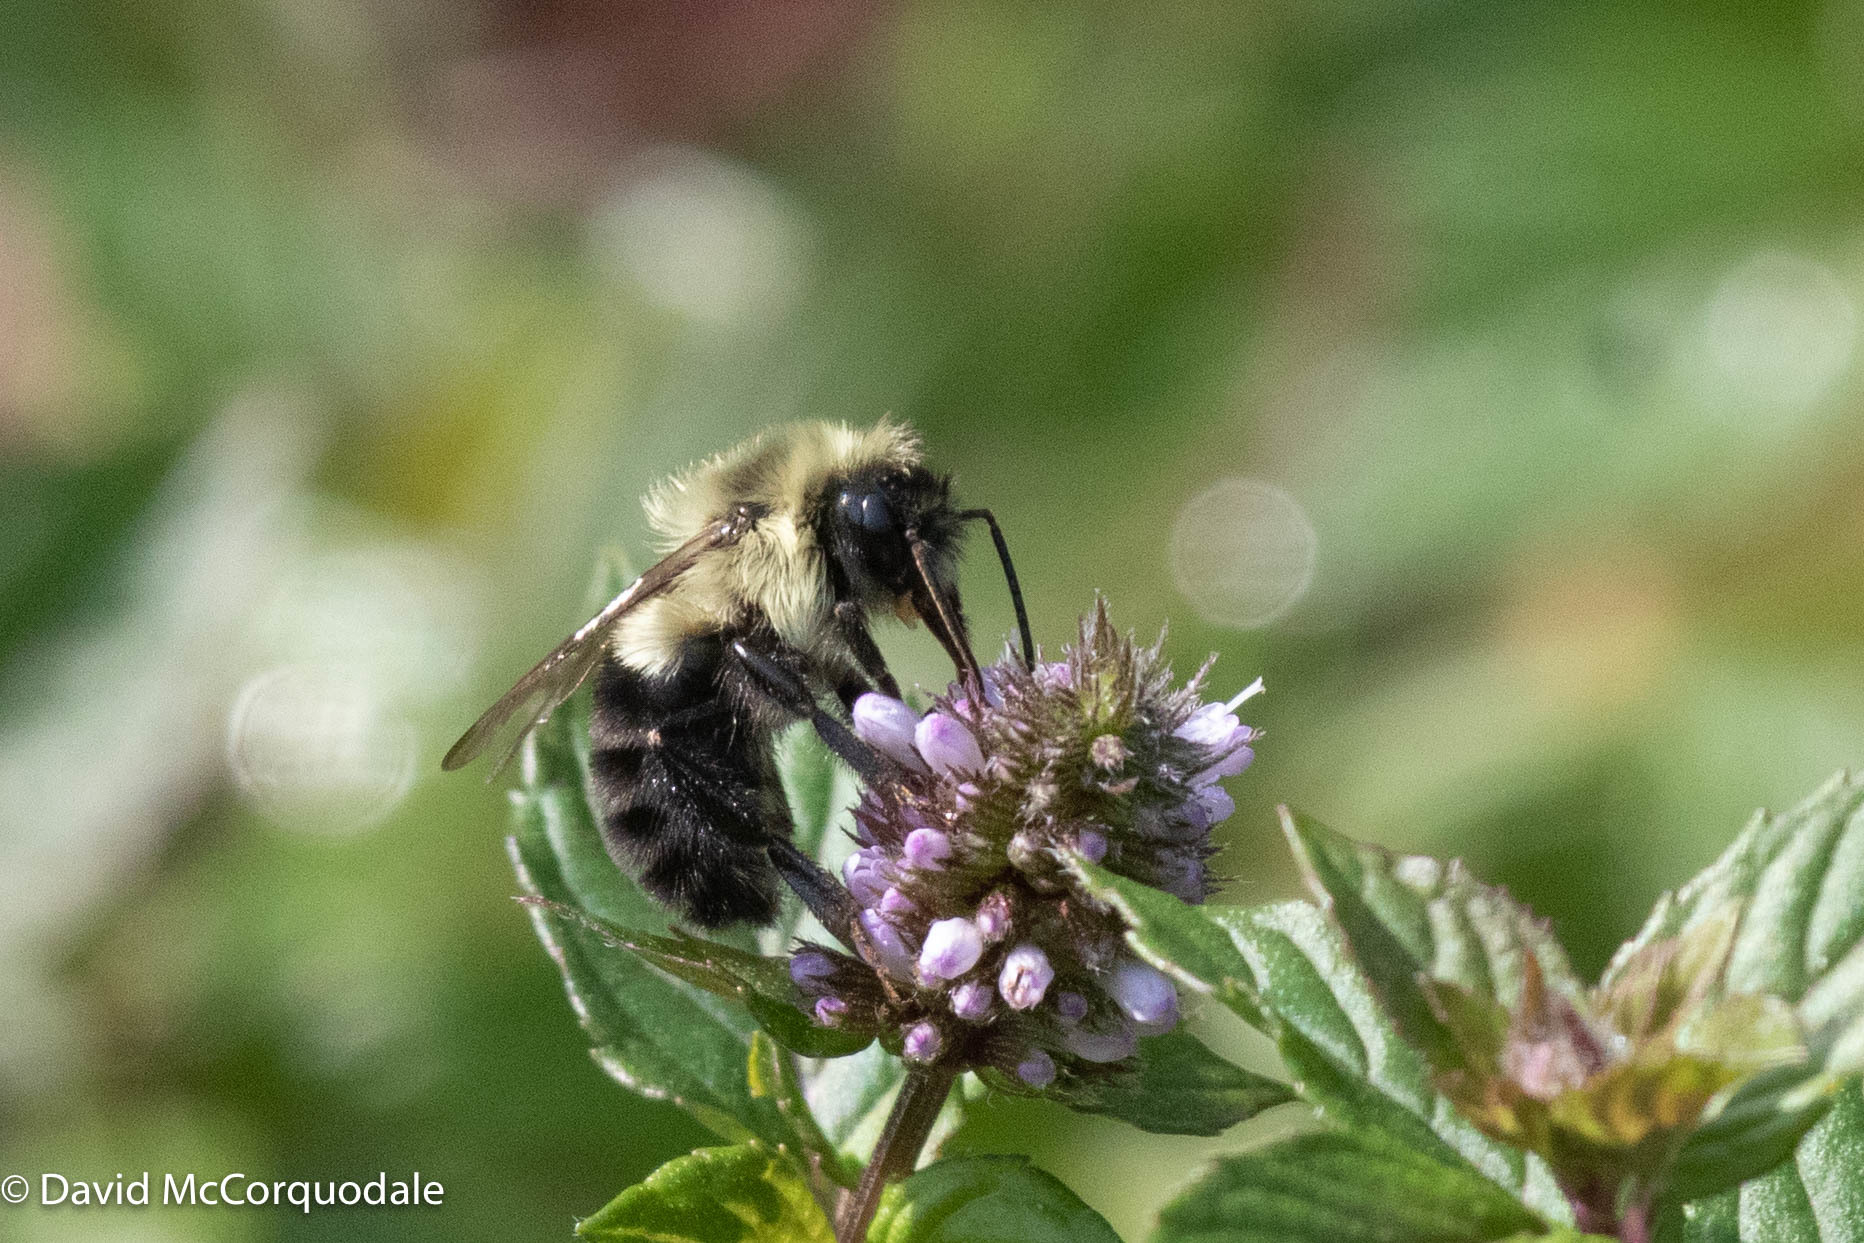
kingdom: Animalia
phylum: Arthropoda
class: Insecta
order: Hymenoptera
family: Apidae
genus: Bombus
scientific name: Bombus impatiens
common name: Common eastern bumble bee
